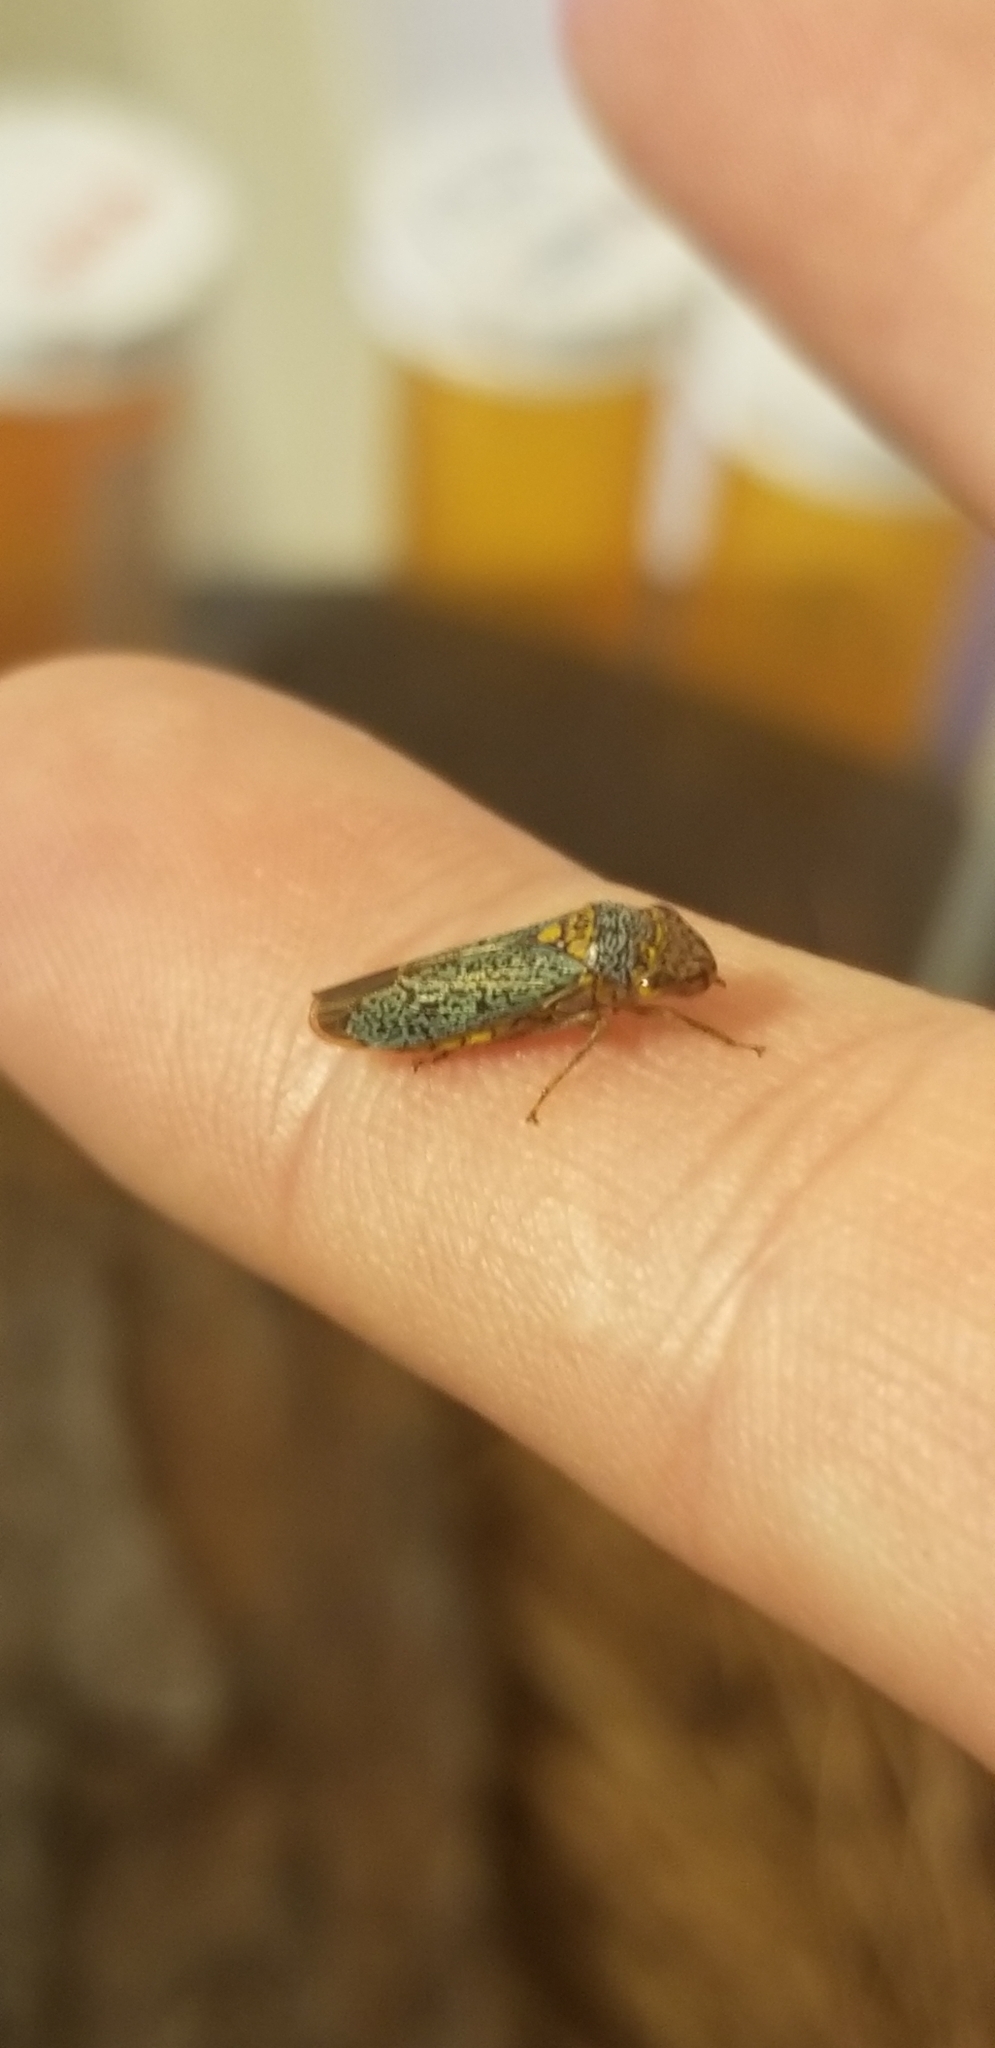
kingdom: Animalia
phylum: Arthropoda
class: Insecta
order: Hemiptera
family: Cicadellidae
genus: Oncometopia
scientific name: Oncometopia orbona
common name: Broad-headed sharpshooter
